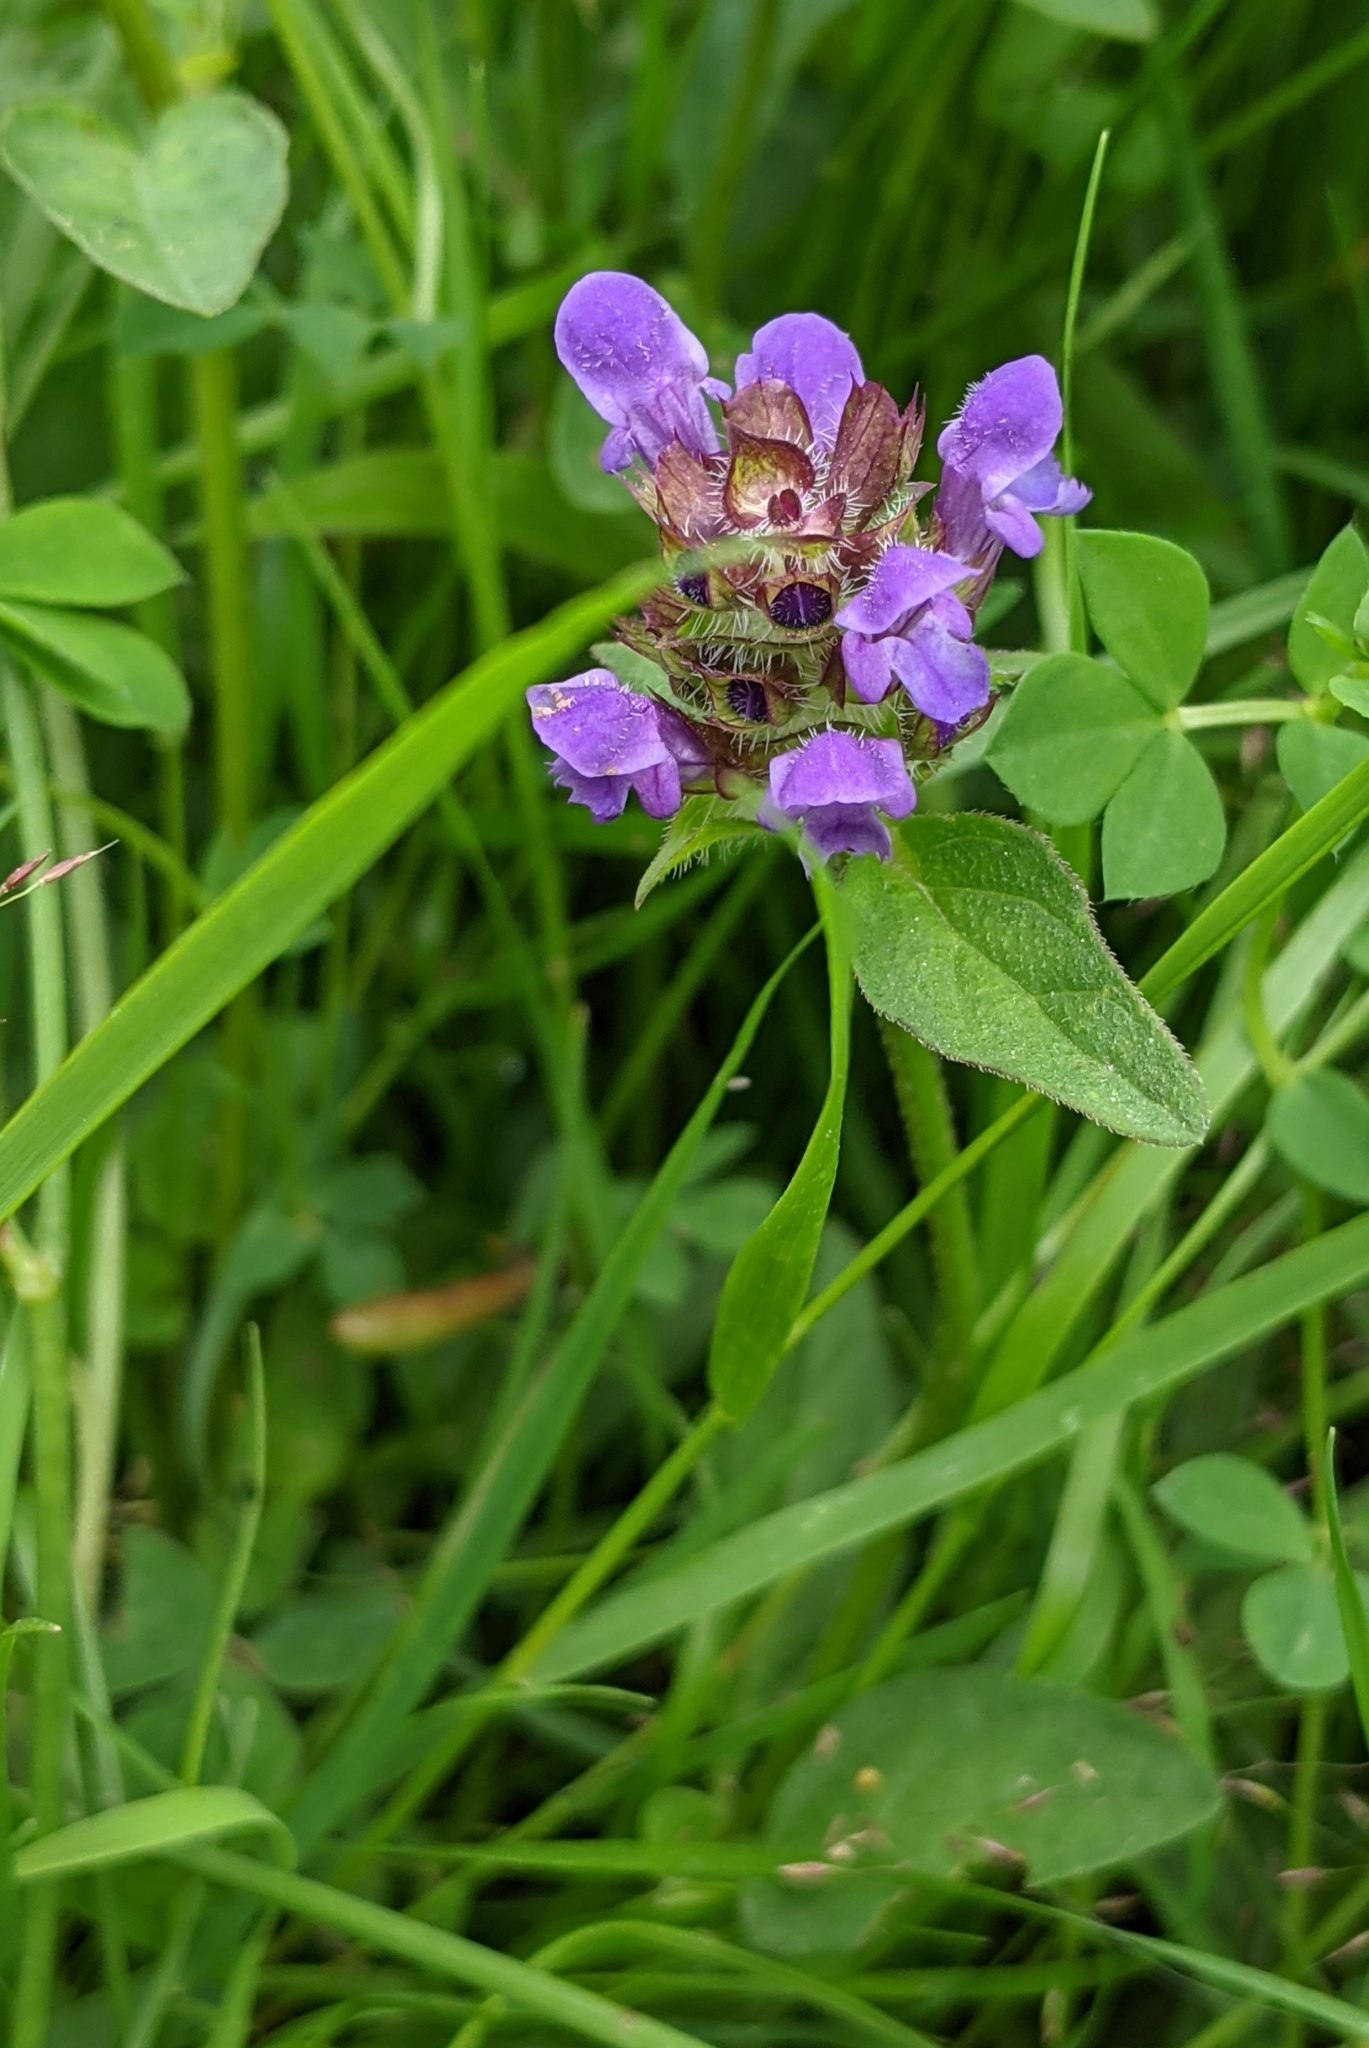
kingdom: Plantae
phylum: Tracheophyta
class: Magnoliopsida
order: Lamiales
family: Lamiaceae
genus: Prunella
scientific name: Prunella vulgaris
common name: Heal-all
